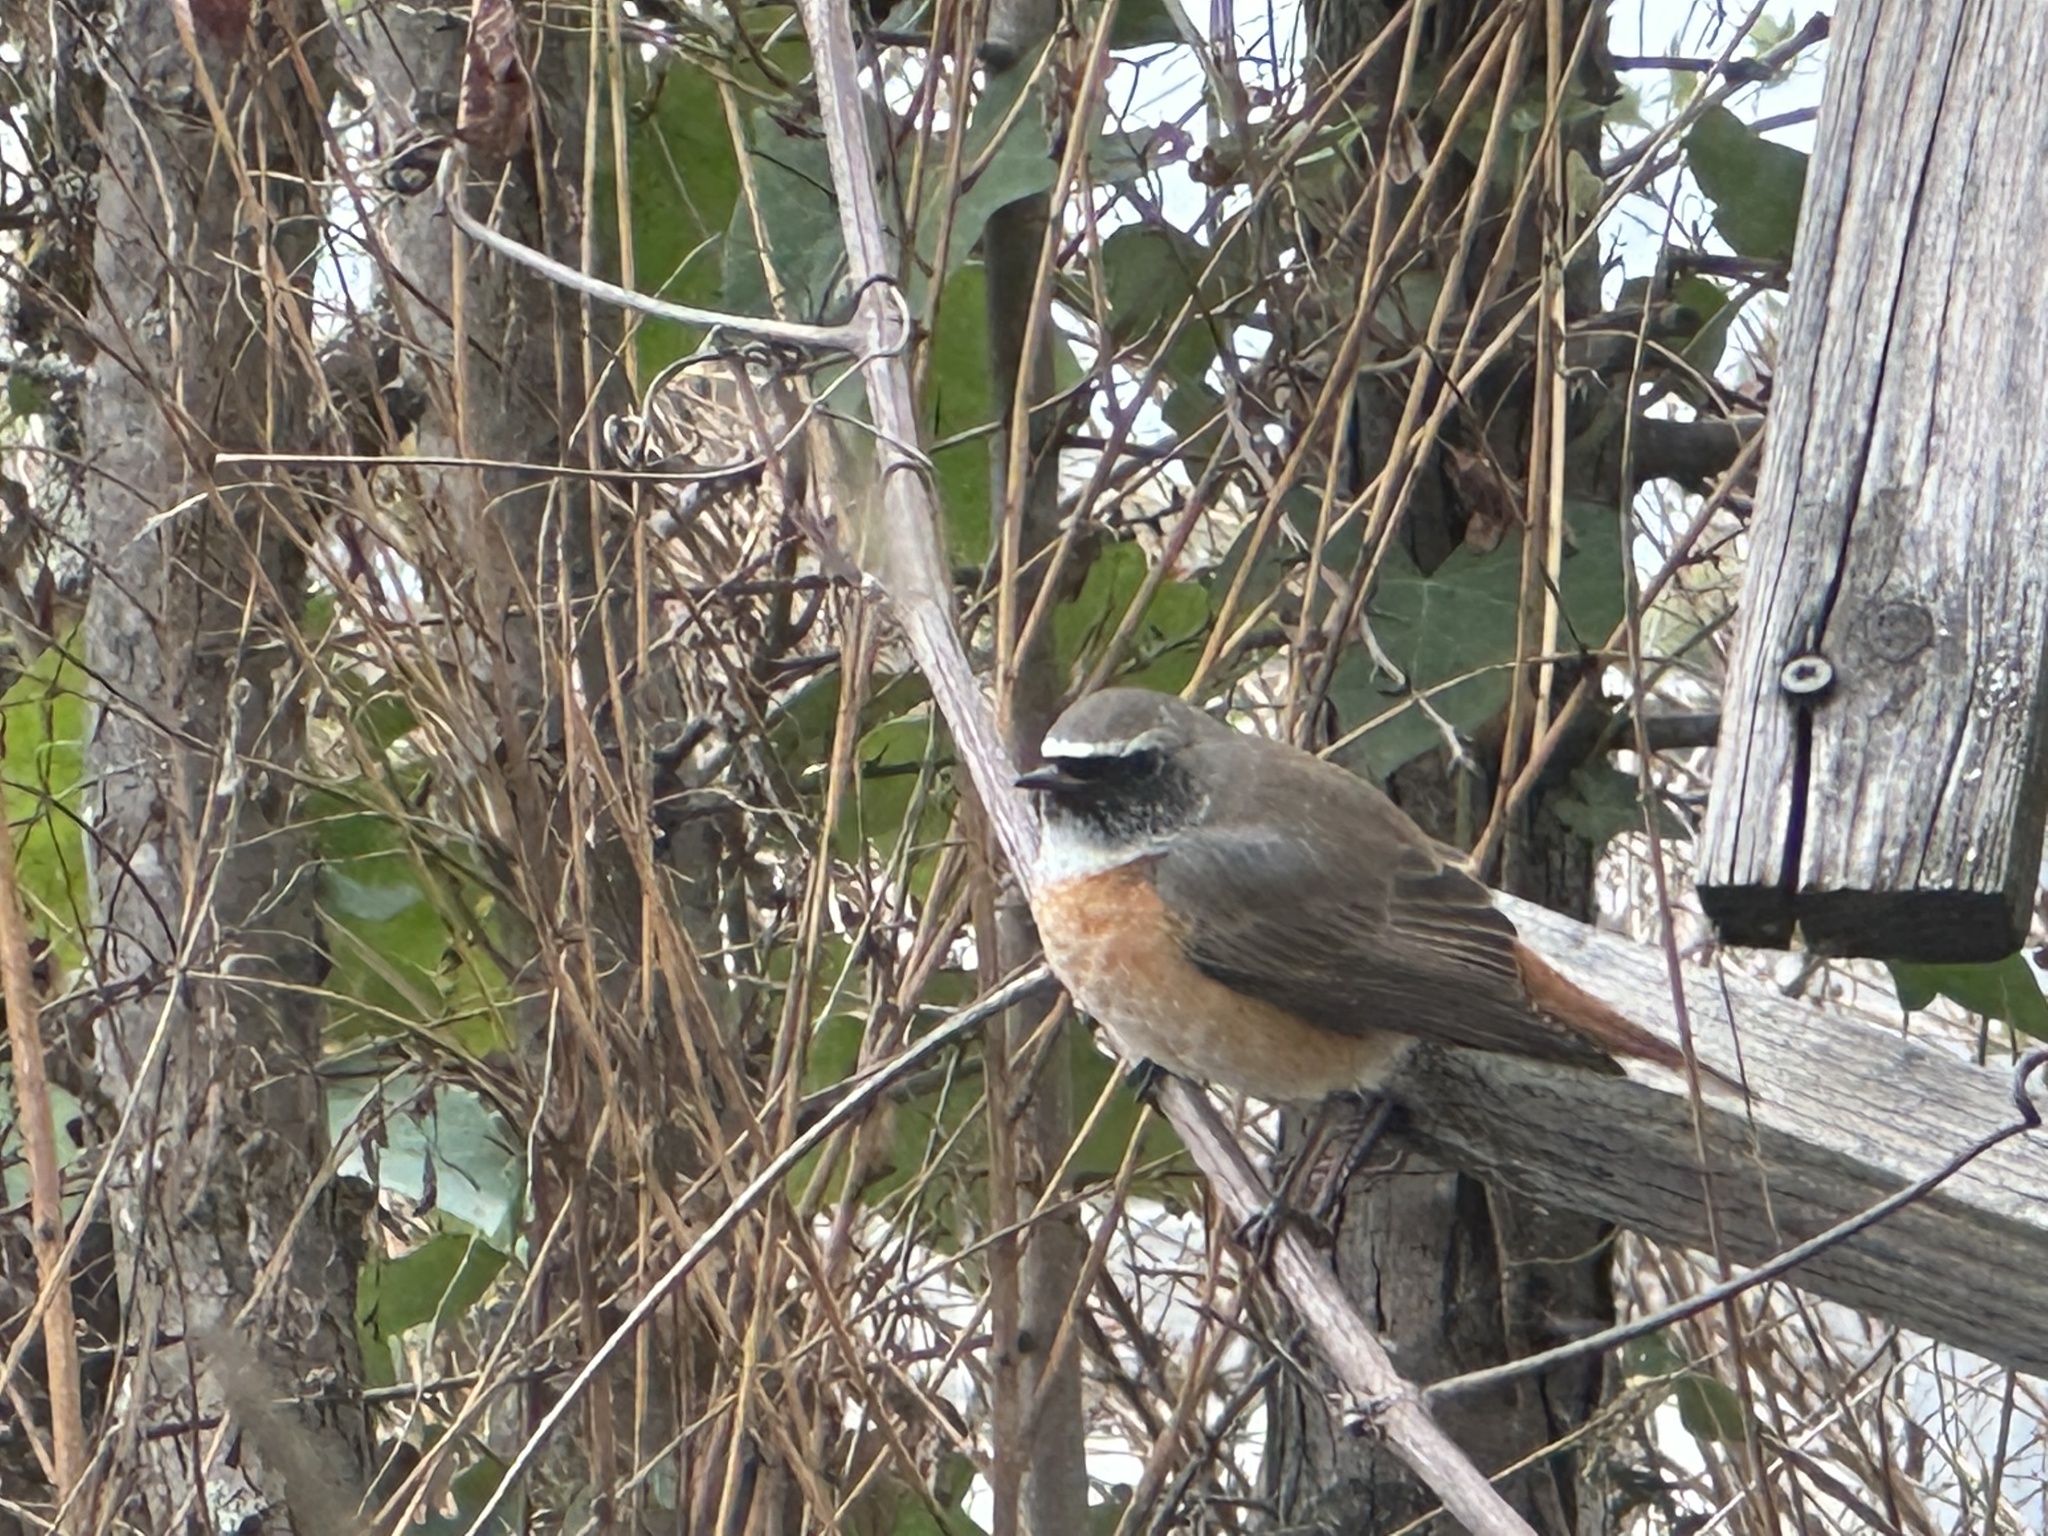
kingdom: Animalia
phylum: Chordata
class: Aves
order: Passeriformes
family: Muscicapidae
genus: Phoenicurus
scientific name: Phoenicurus phoenicurus
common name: Common redstart
